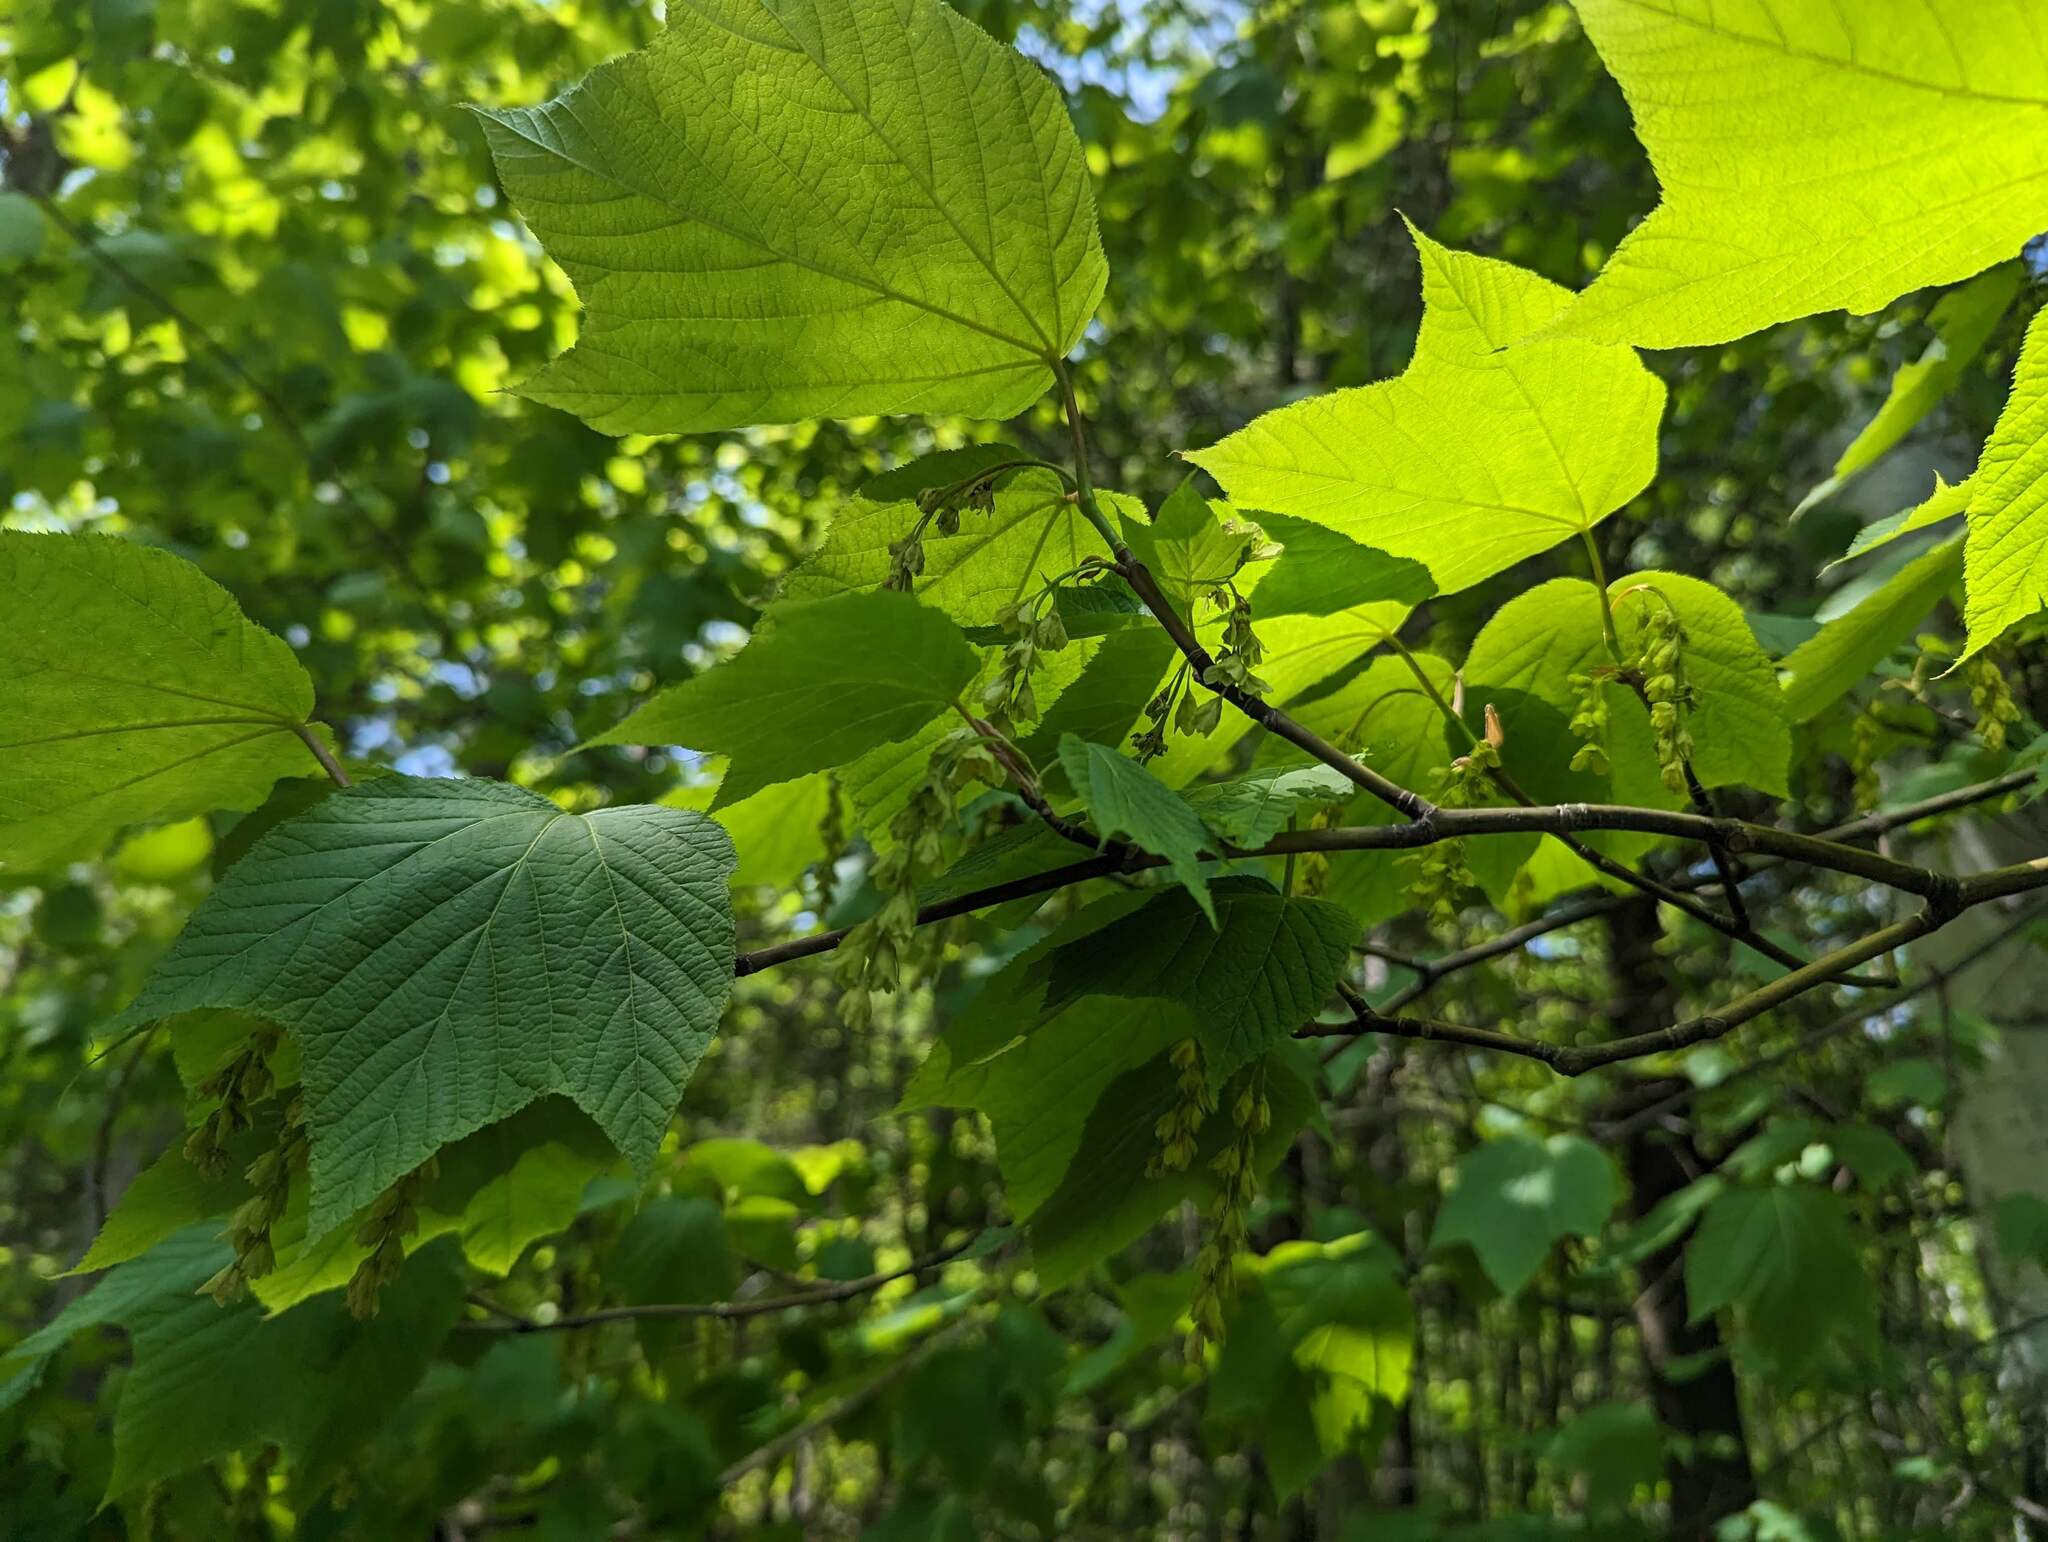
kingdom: Plantae
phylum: Tracheophyta
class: Magnoliopsida
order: Sapindales
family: Sapindaceae
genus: Acer
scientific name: Acer pensylvanicum
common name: Moosewood
